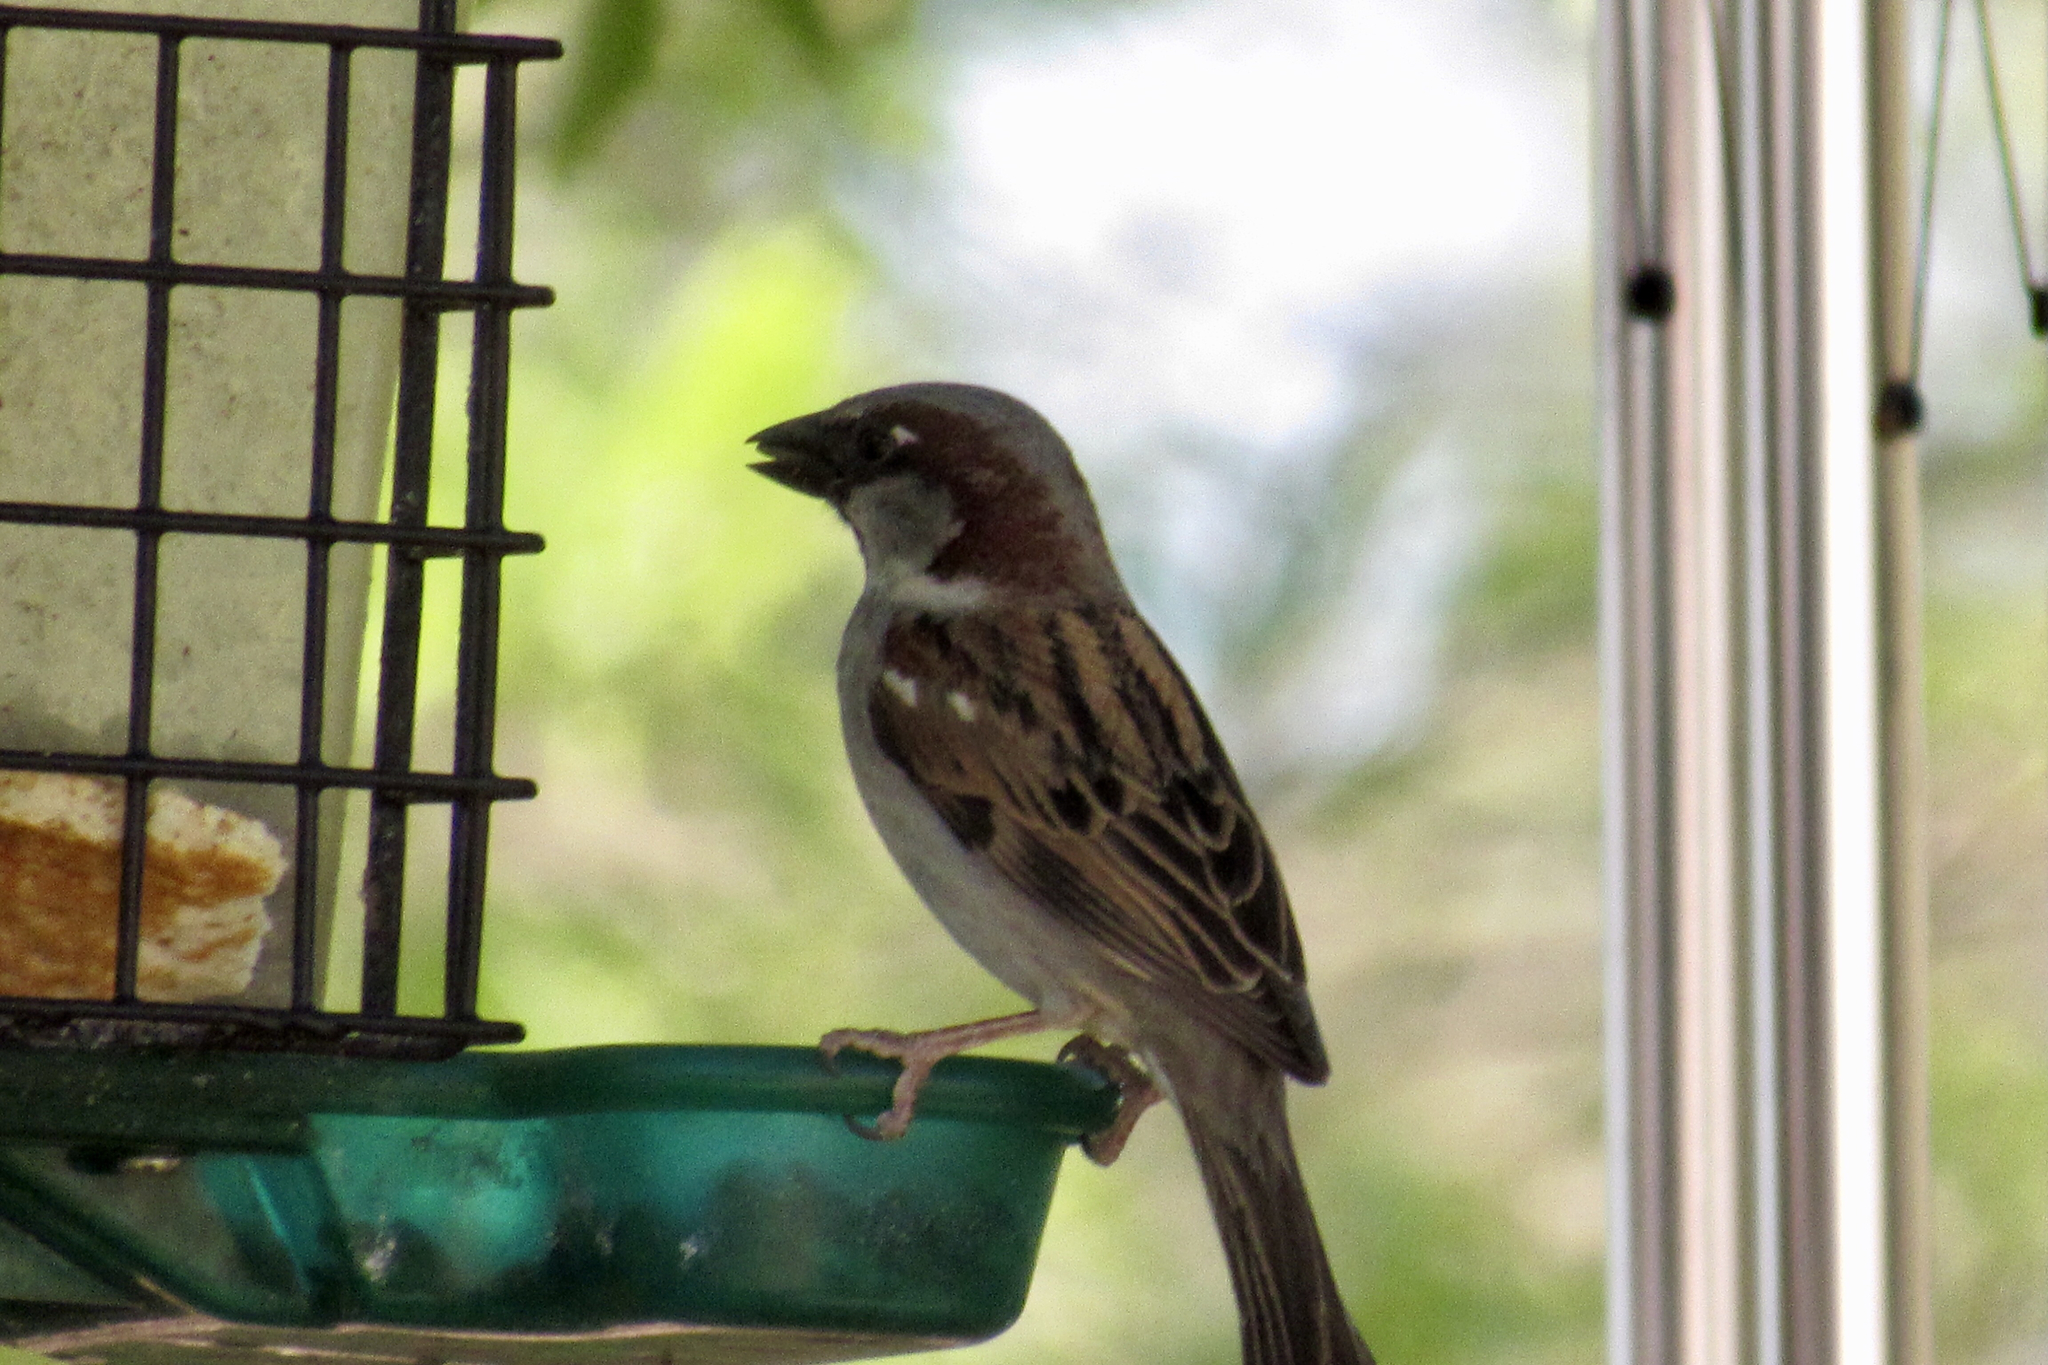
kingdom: Animalia
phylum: Chordata
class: Aves
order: Passeriformes
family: Passeridae
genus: Passer
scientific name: Passer domesticus
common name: House sparrow
